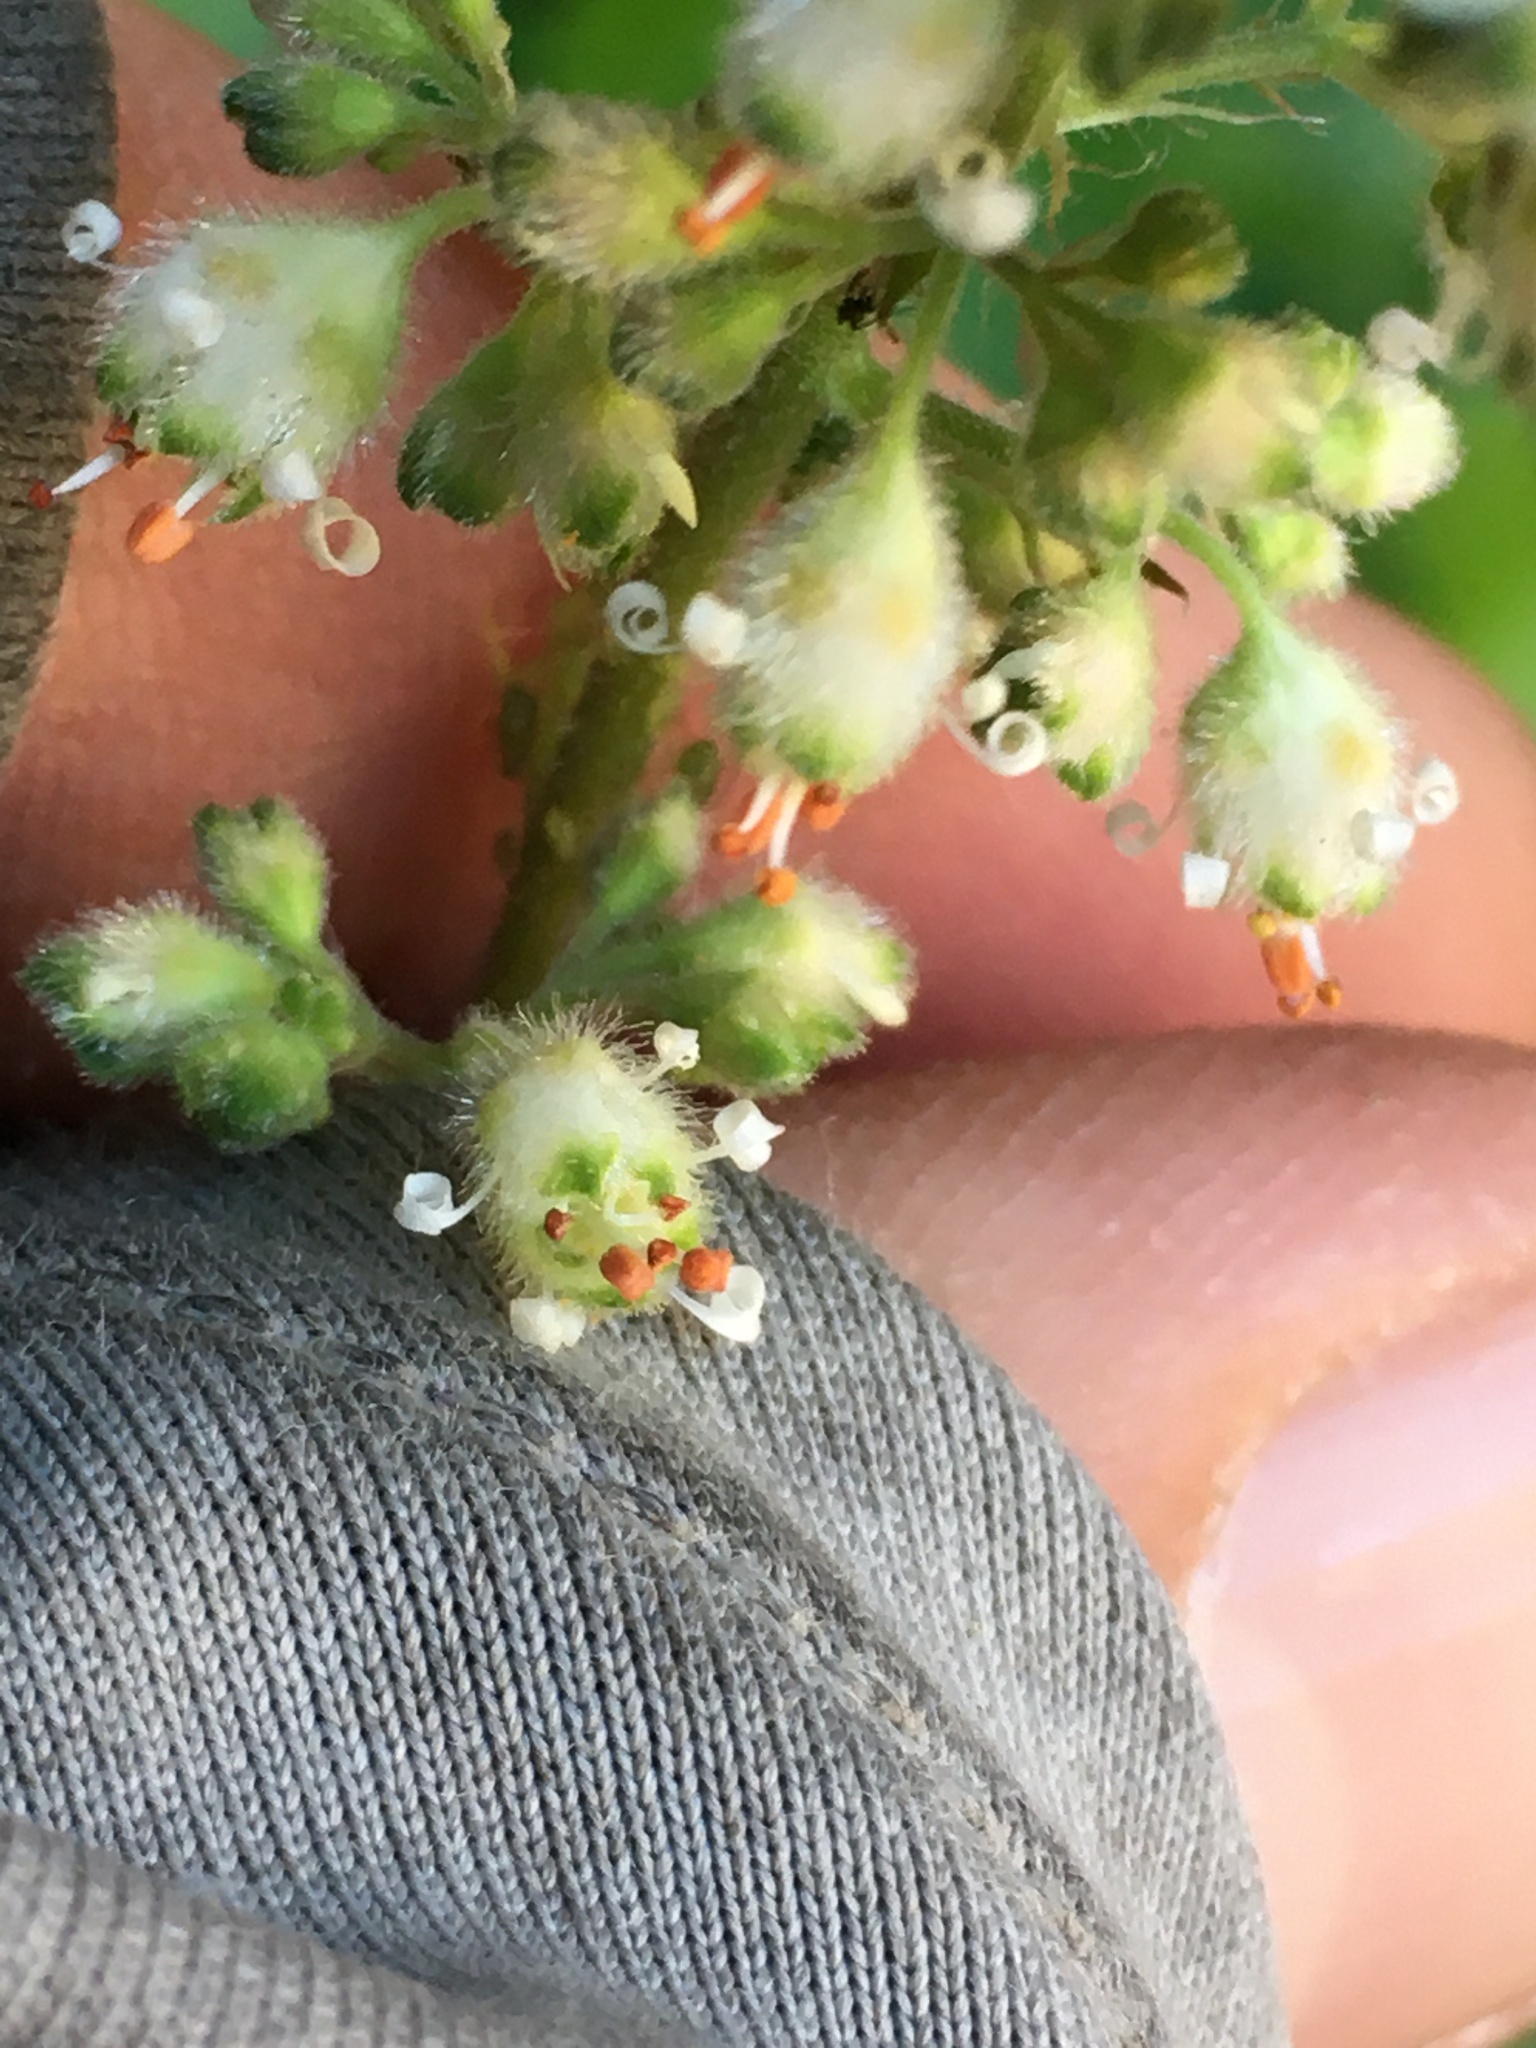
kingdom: Plantae
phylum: Tracheophyta
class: Magnoliopsida
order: Saxifragales
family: Saxifragaceae
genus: Heuchera
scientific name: Heuchera maxima
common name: Island alumroot
